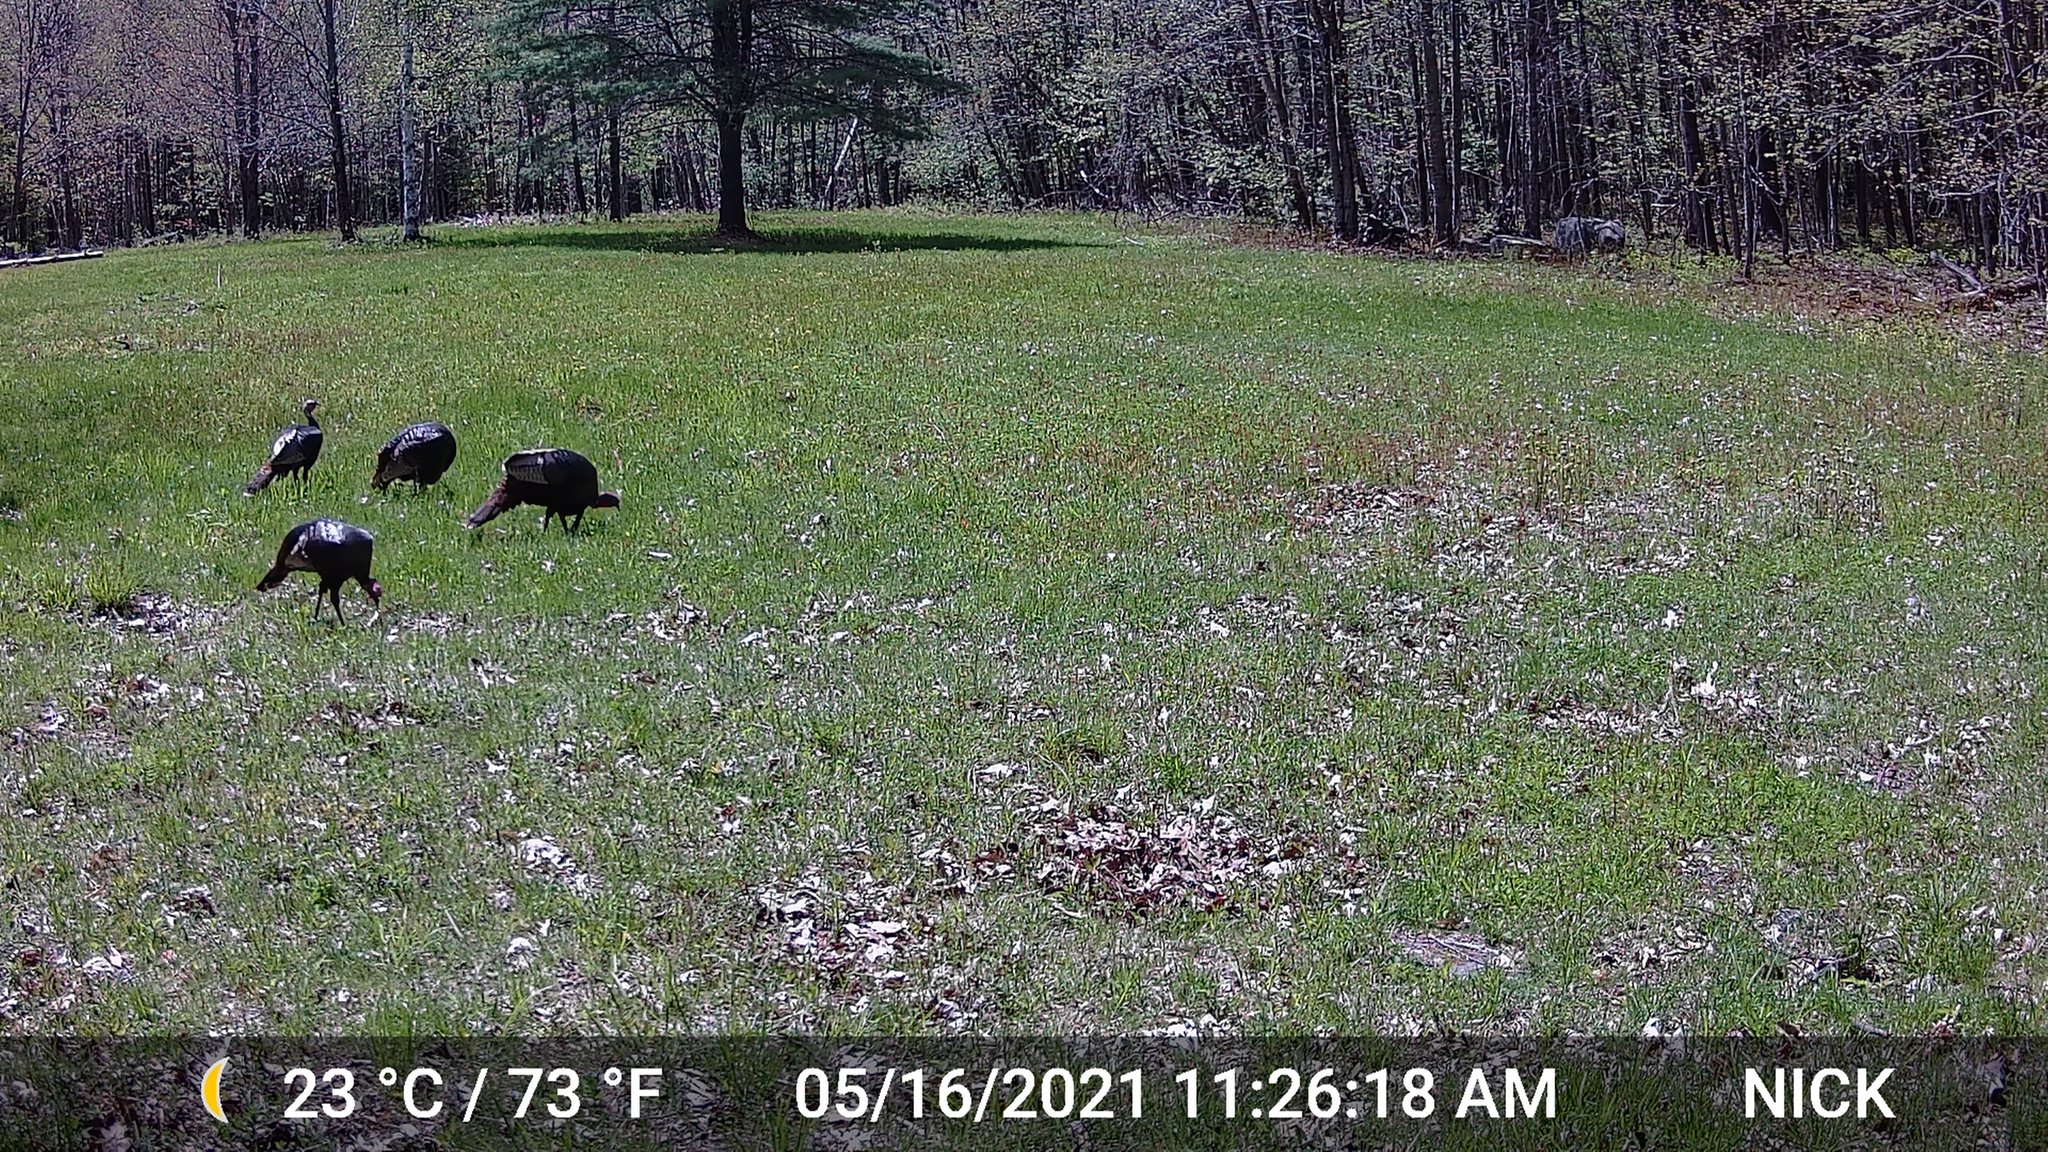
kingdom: Animalia
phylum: Chordata
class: Aves
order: Galliformes
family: Phasianidae
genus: Meleagris
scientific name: Meleagris gallopavo
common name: Wild turkey
